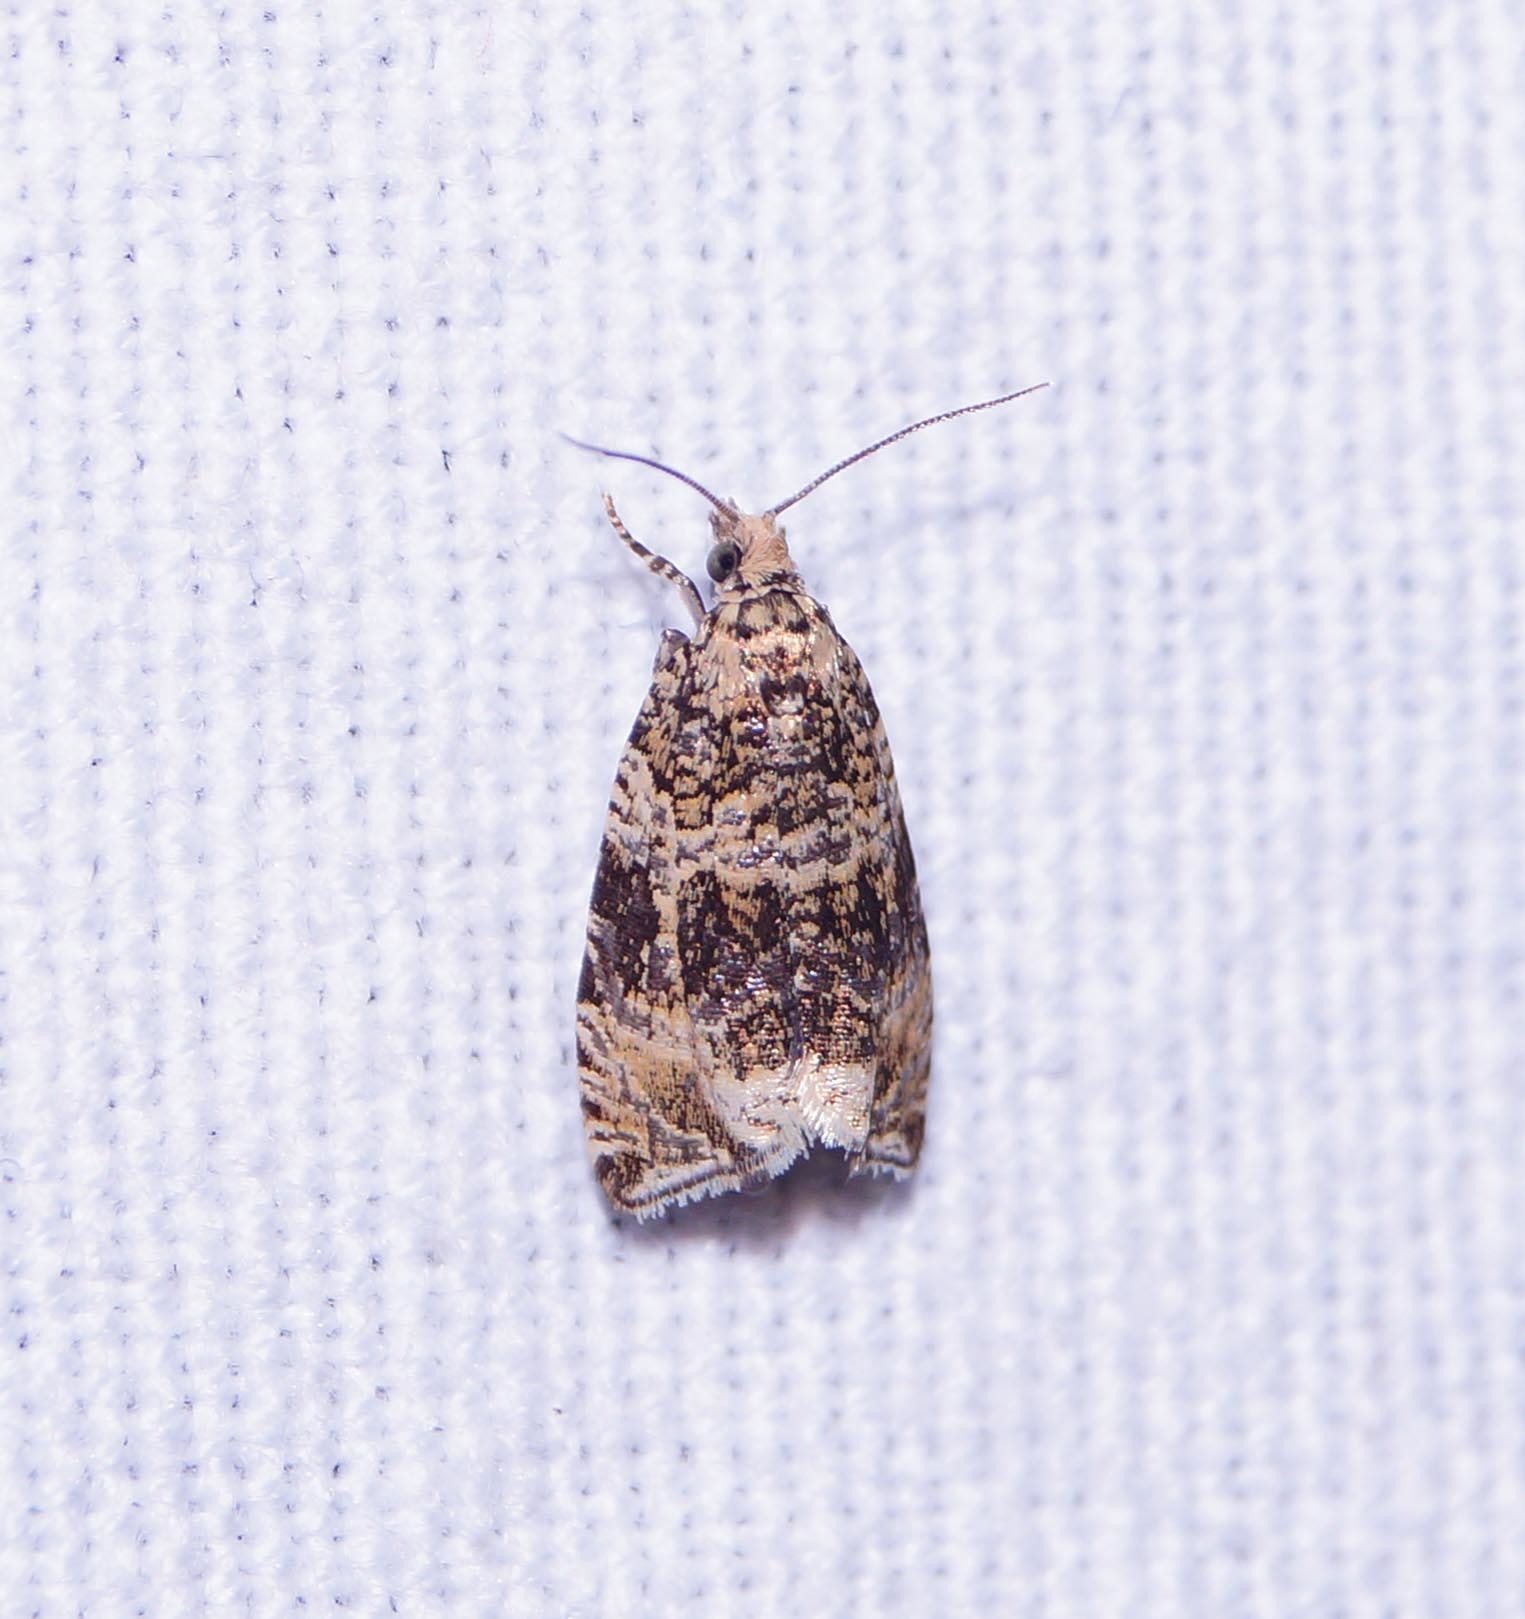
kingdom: Animalia
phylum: Arthropoda
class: Insecta
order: Lepidoptera
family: Tortricidae
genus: Syricoris
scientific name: Syricoris lacunana
